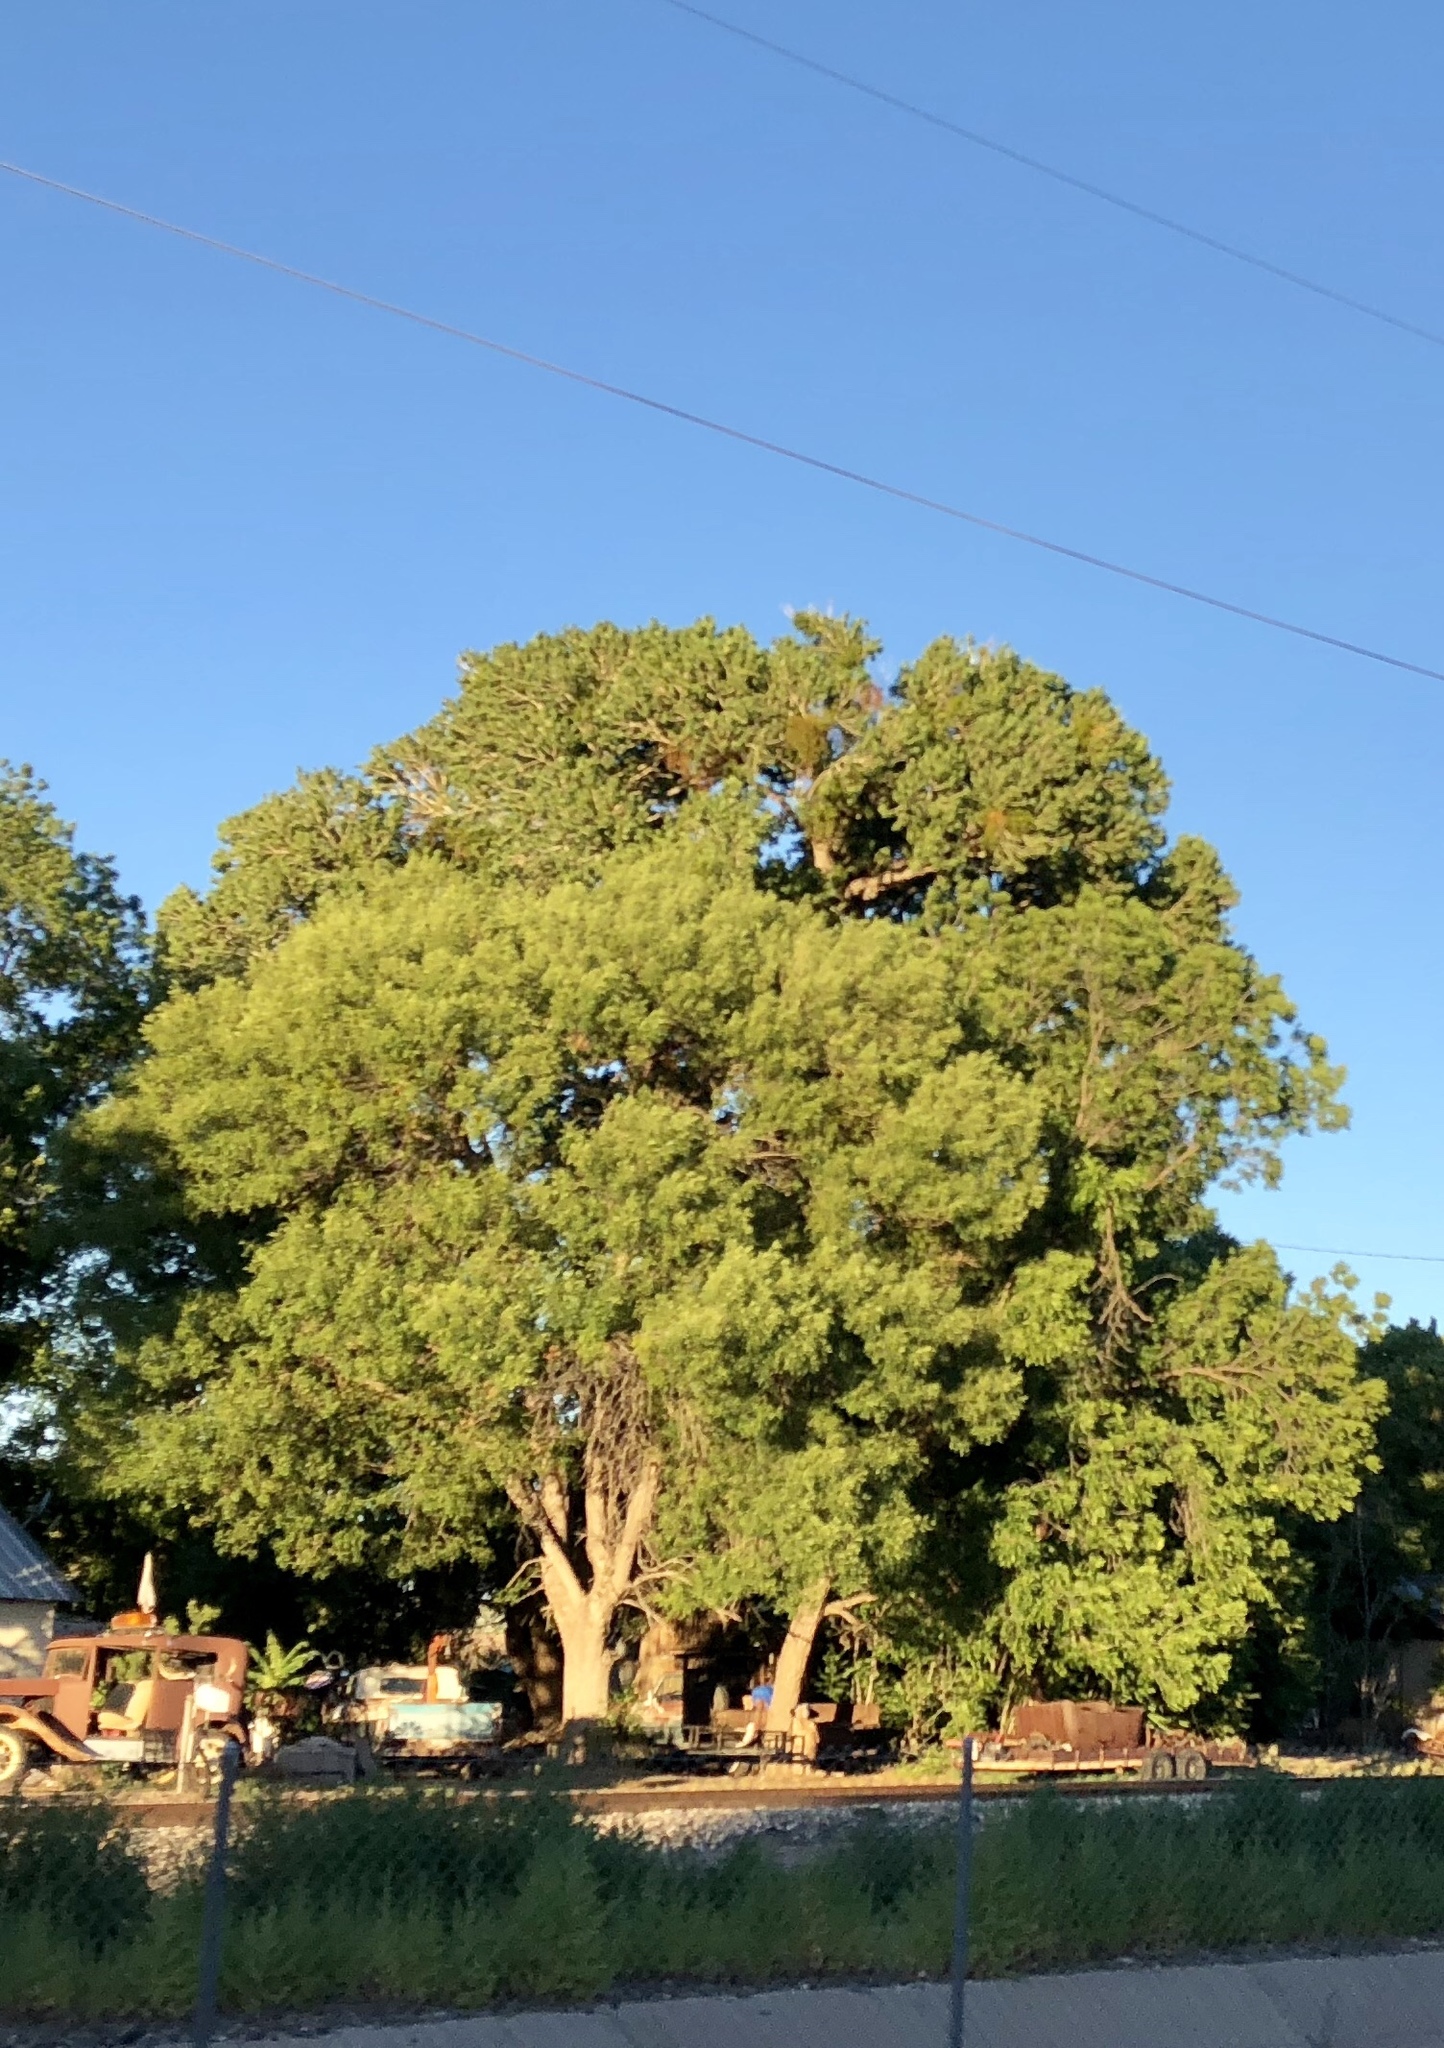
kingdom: Plantae
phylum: Tracheophyta
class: Magnoliopsida
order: Malpighiales
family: Salicaceae
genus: Populus
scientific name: Populus fremontii
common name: Fremont's cottonwood
